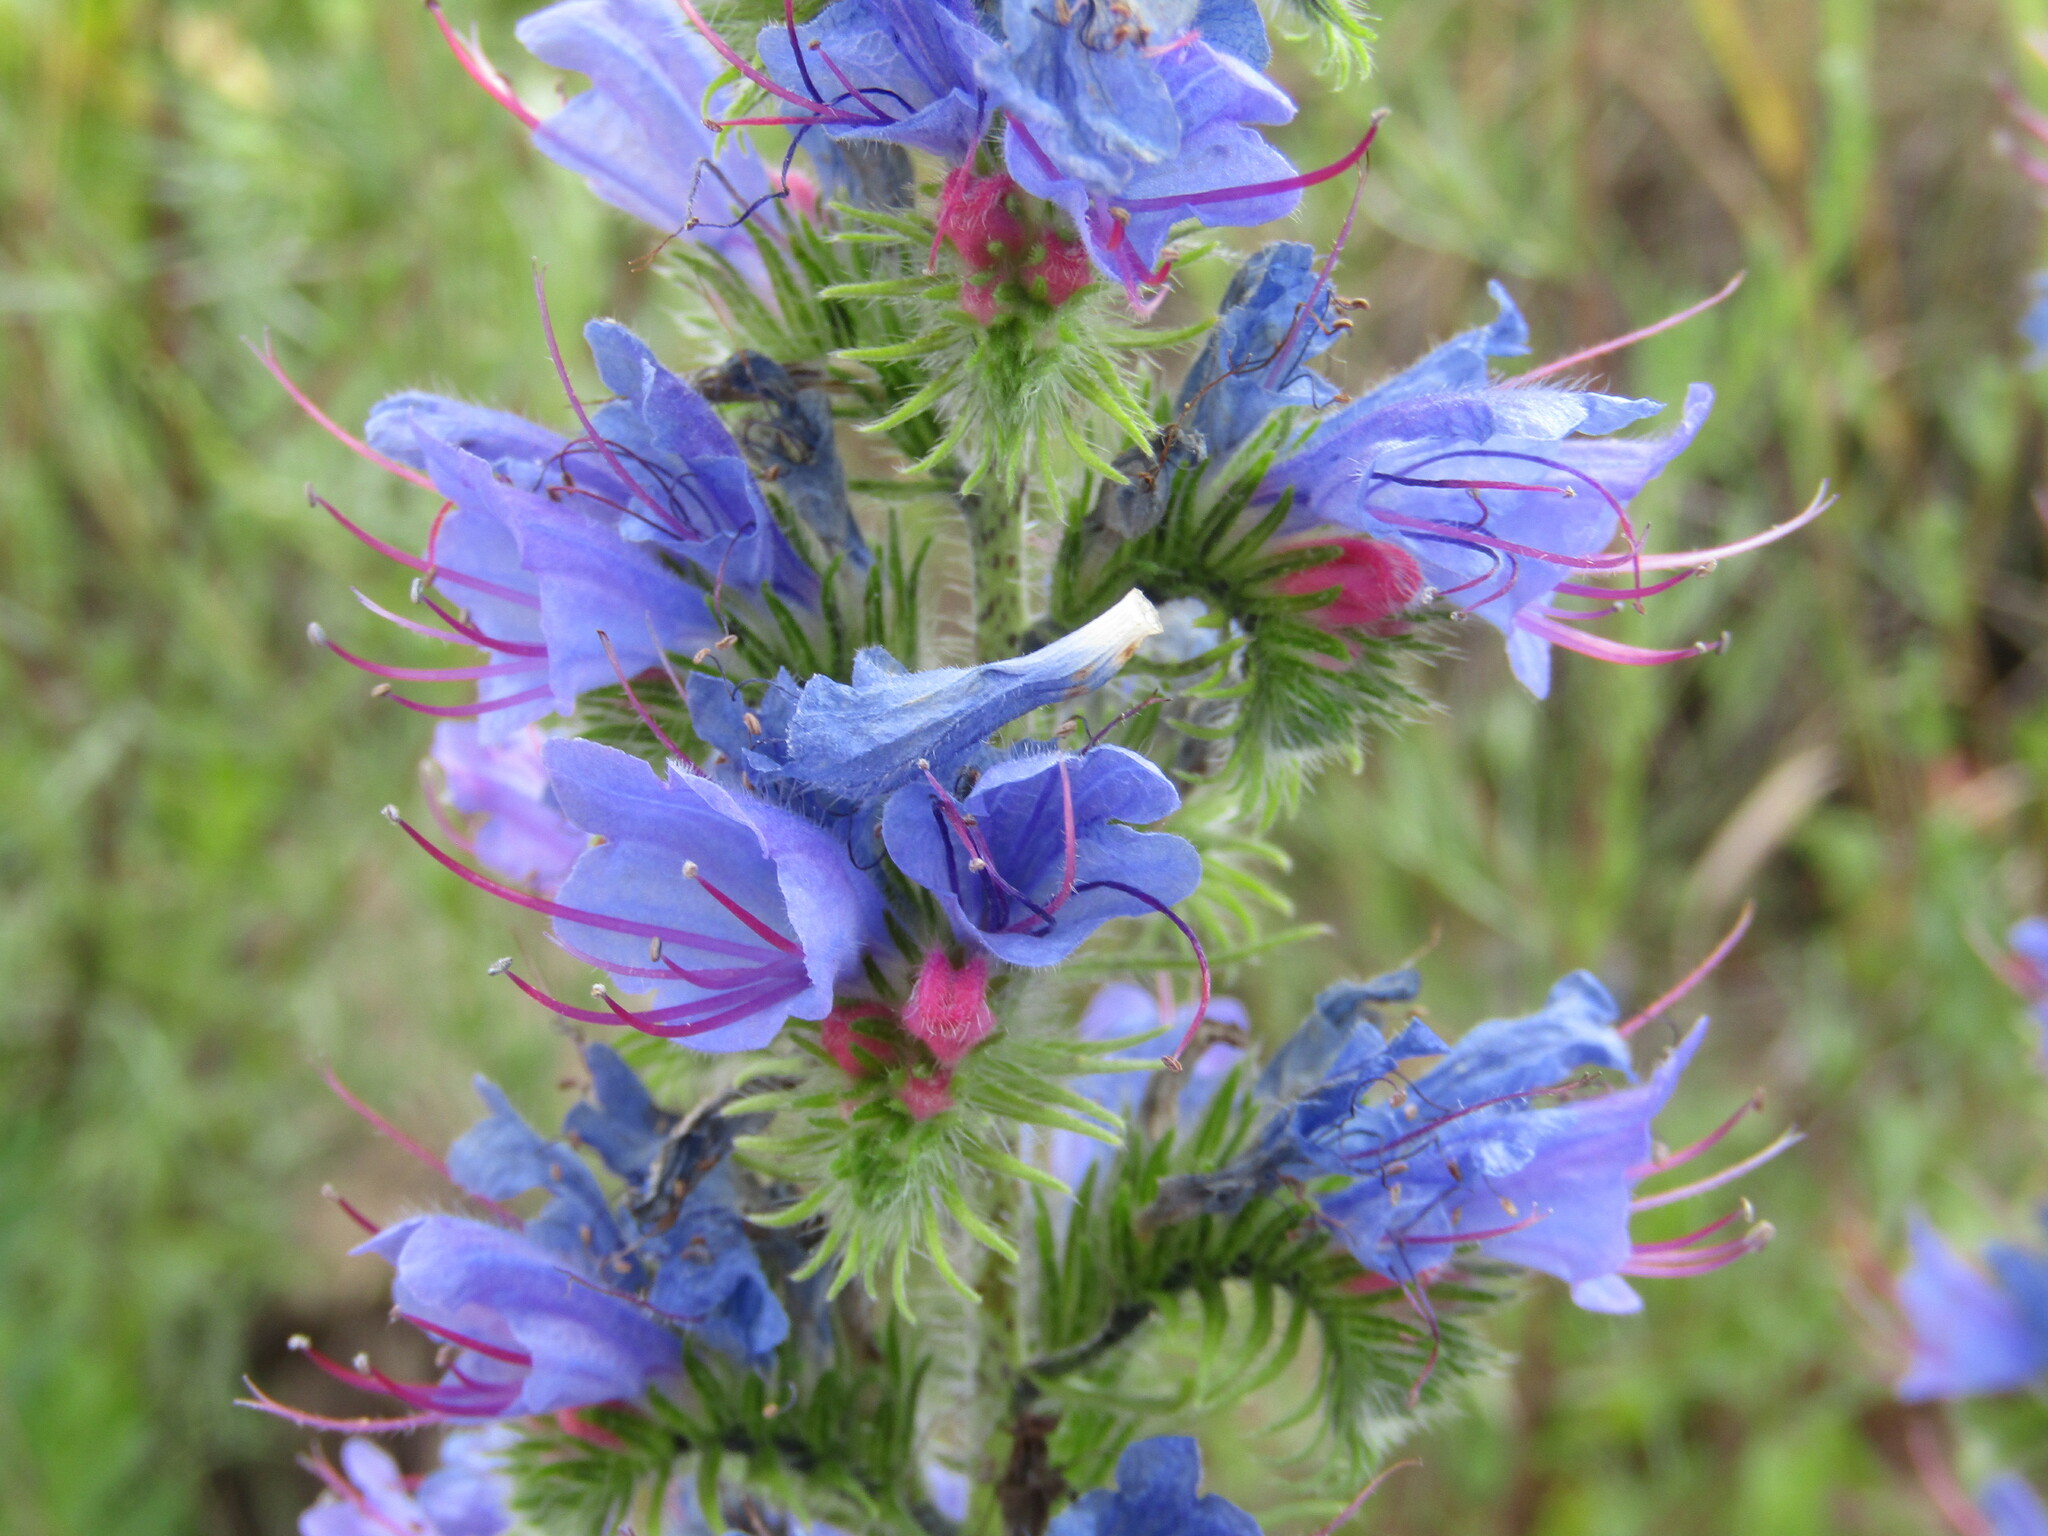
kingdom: Plantae
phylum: Tracheophyta
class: Magnoliopsida
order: Boraginales
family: Boraginaceae
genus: Echium
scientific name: Echium vulgare
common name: Common viper's bugloss
